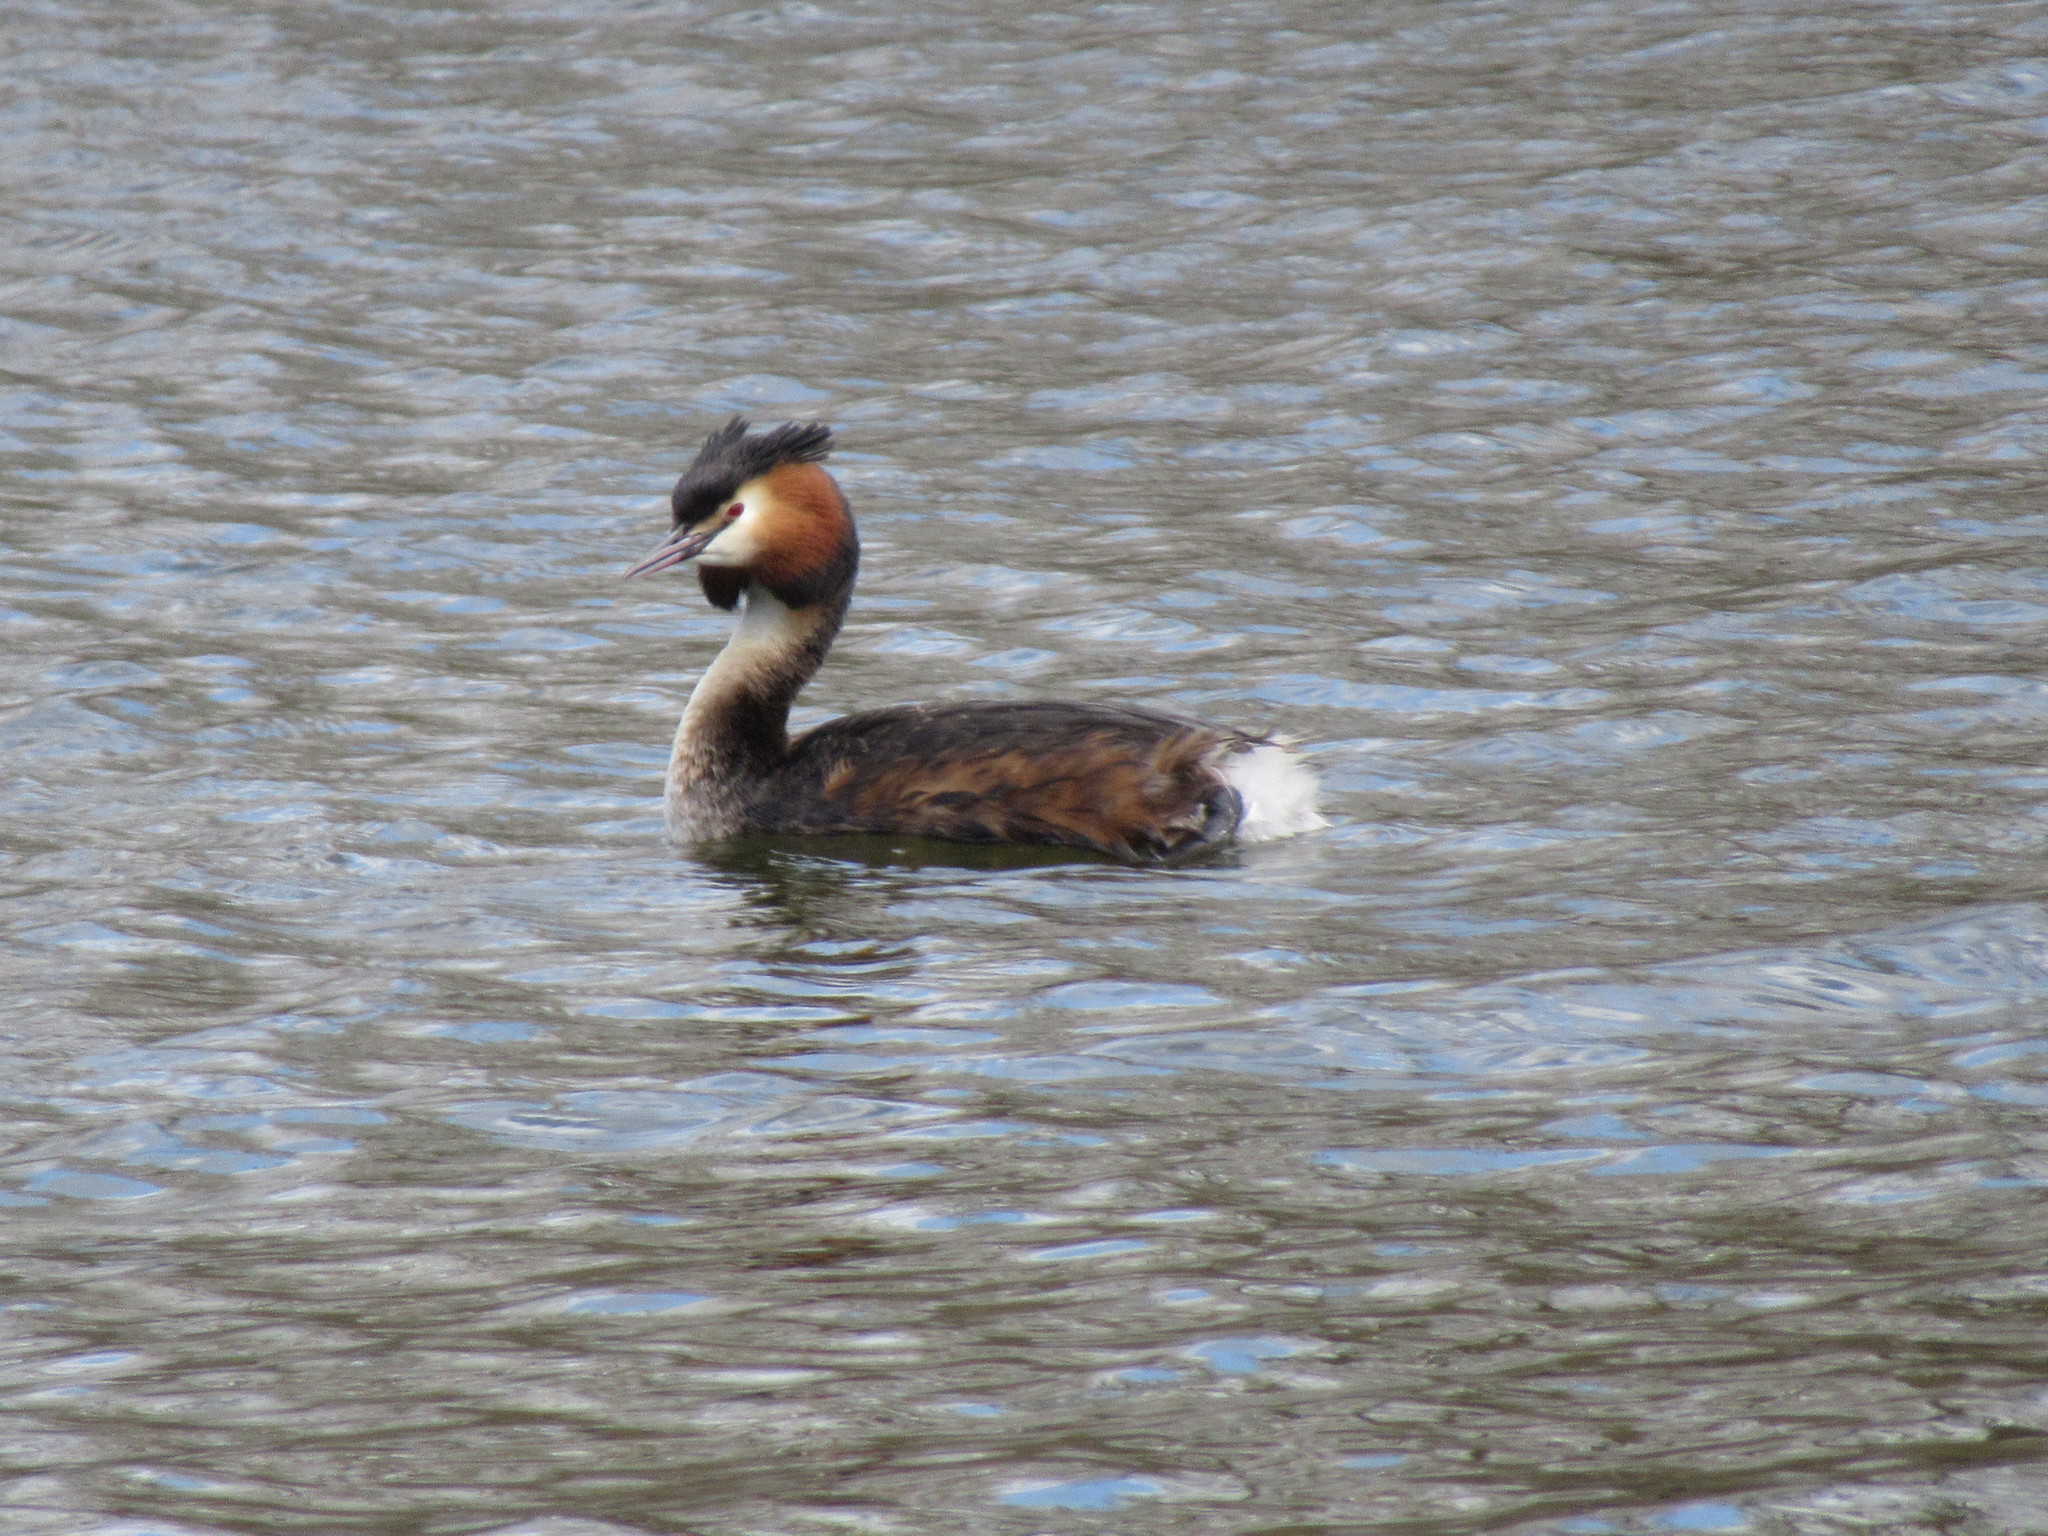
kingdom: Animalia
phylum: Chordata
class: Aves
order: Podicipediformes
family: Podicipedidae
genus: Podiceps
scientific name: Podiceps cristatus
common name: Great crested grebe
